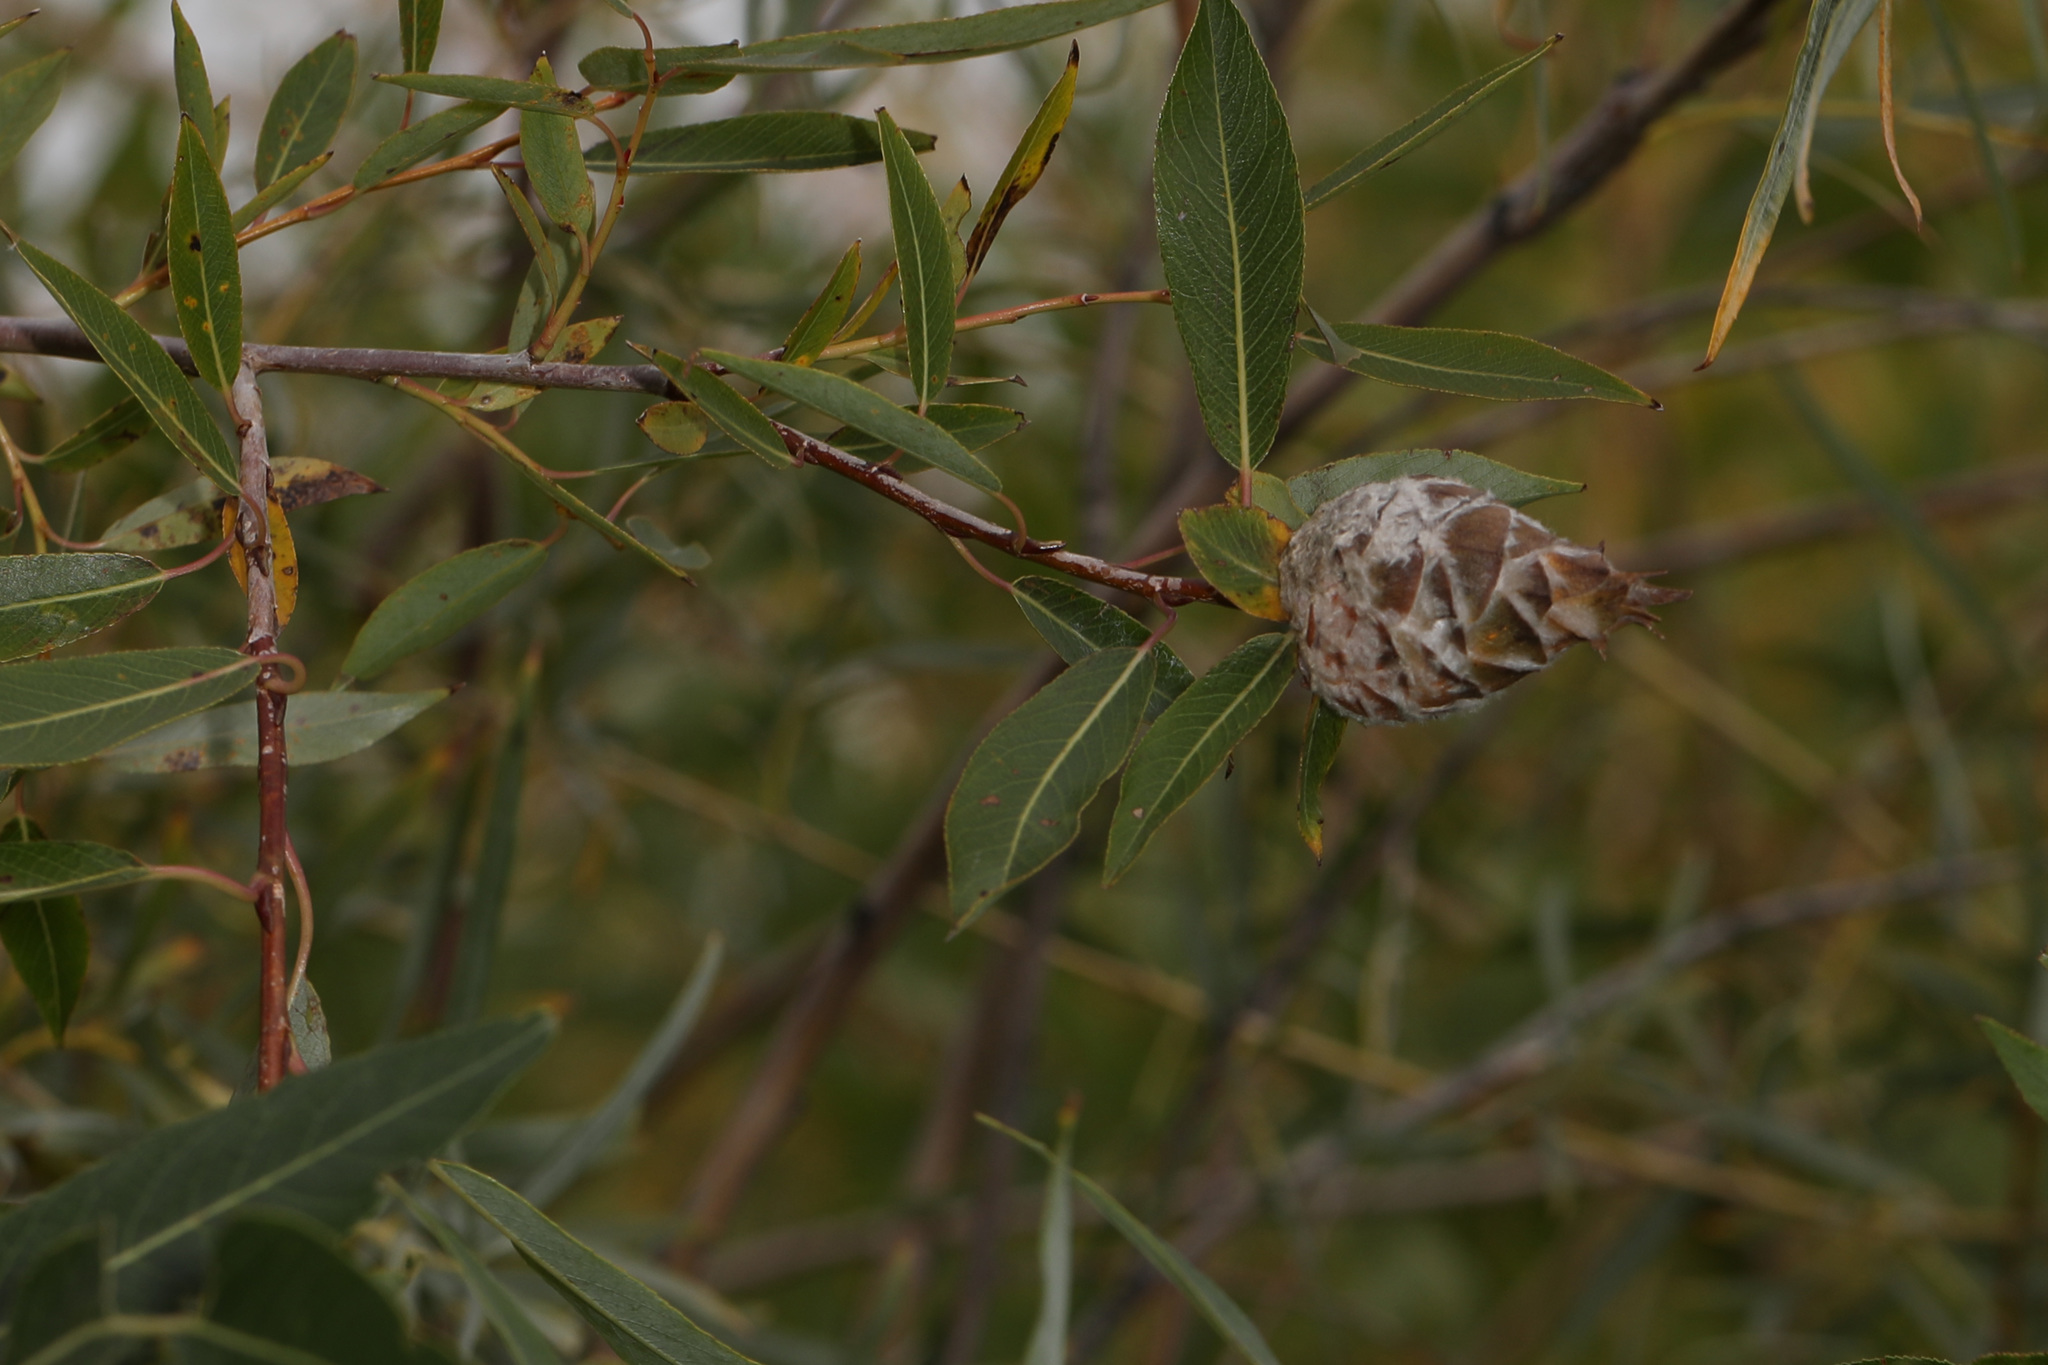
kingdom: Animalia
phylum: Arthropoda
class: Insecta
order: Diptera
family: Cecidomyiidae
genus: Rabdophaga
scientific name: Rabdophaga strobiloides
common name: Willow pinecone gall midge
